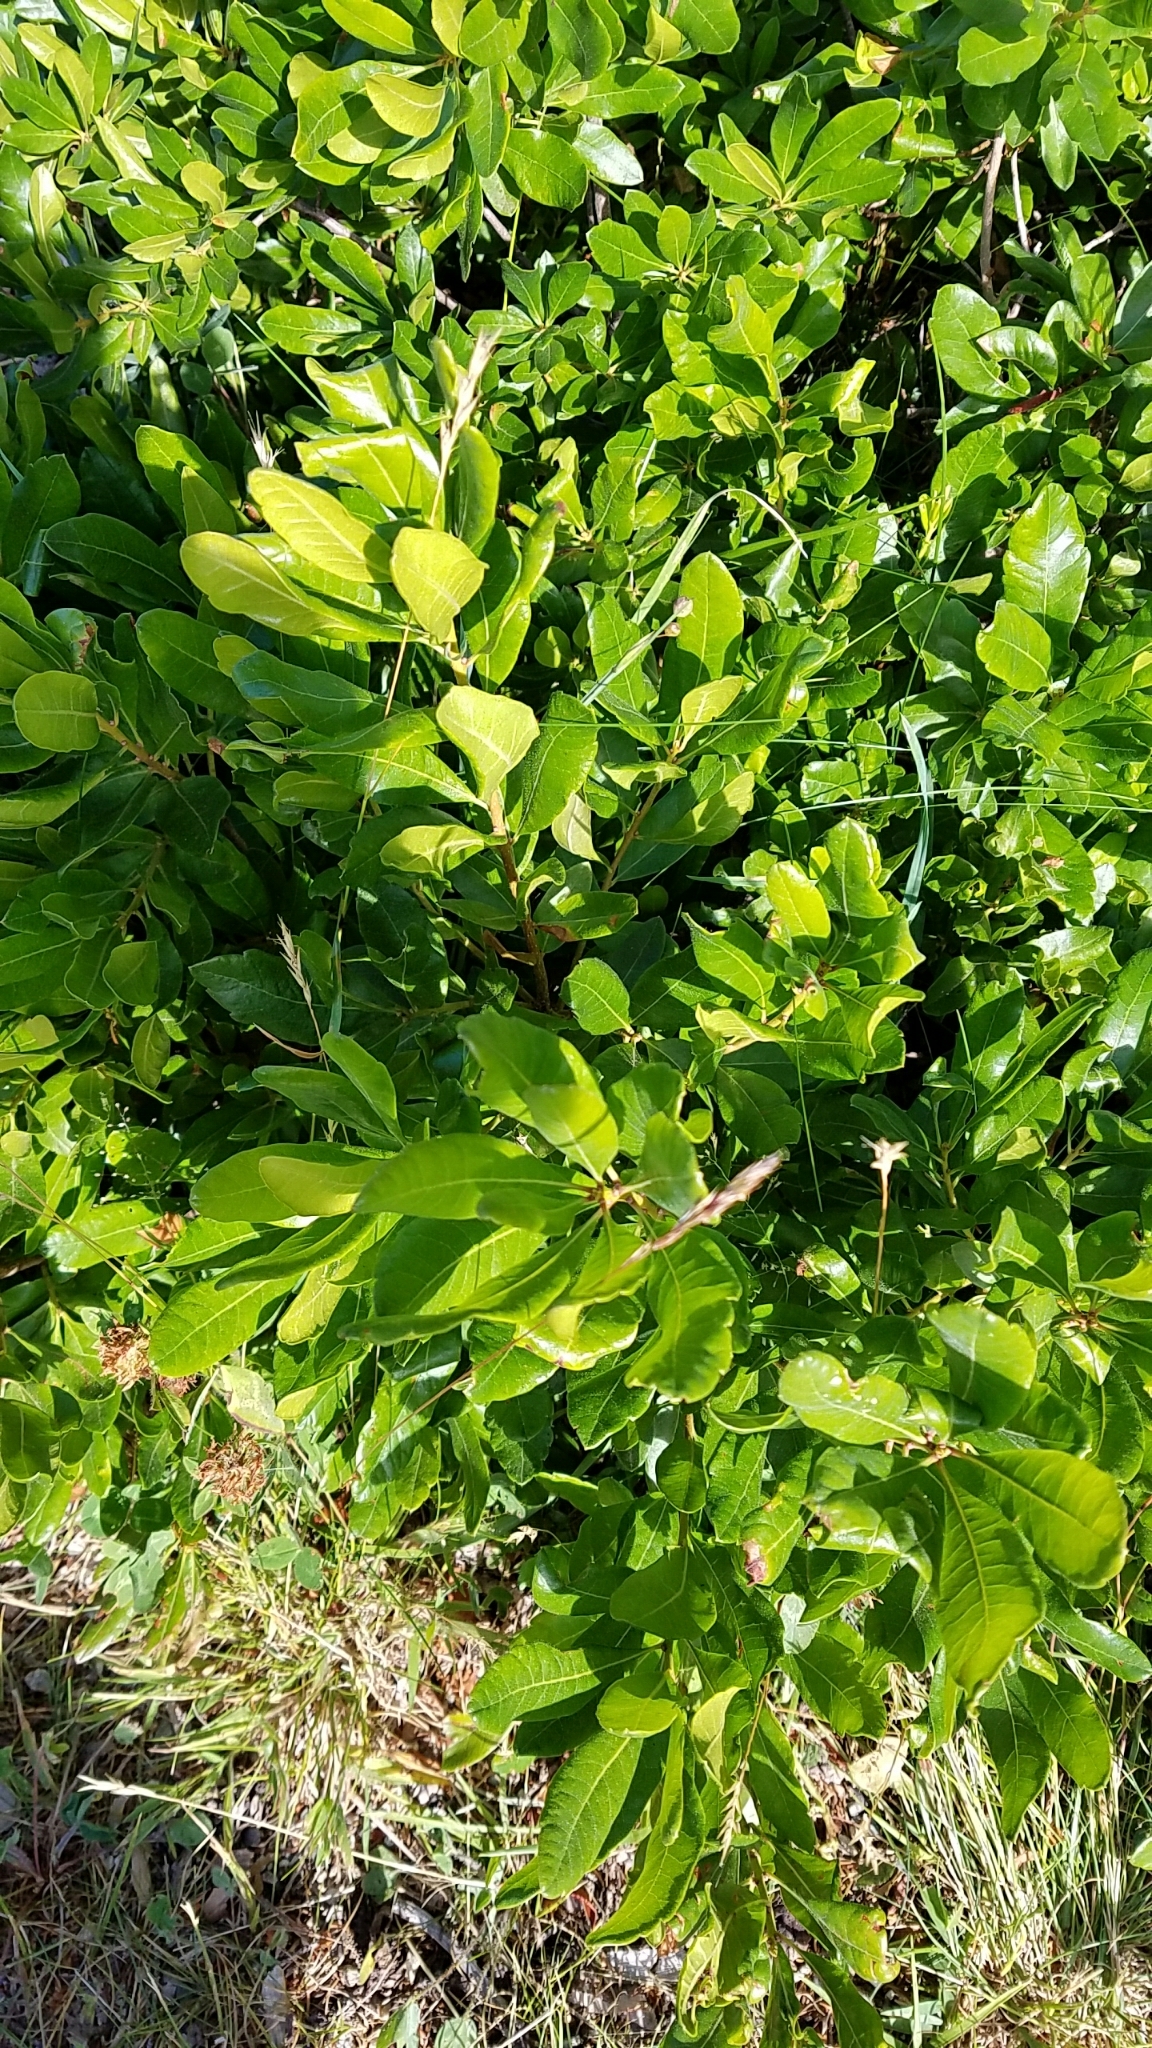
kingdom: Plantae
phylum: Tracheophyta
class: Magnoliopsida
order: Fagales
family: Myricaceae
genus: Morella
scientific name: Morella pensylvanica
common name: Northern bayberry
